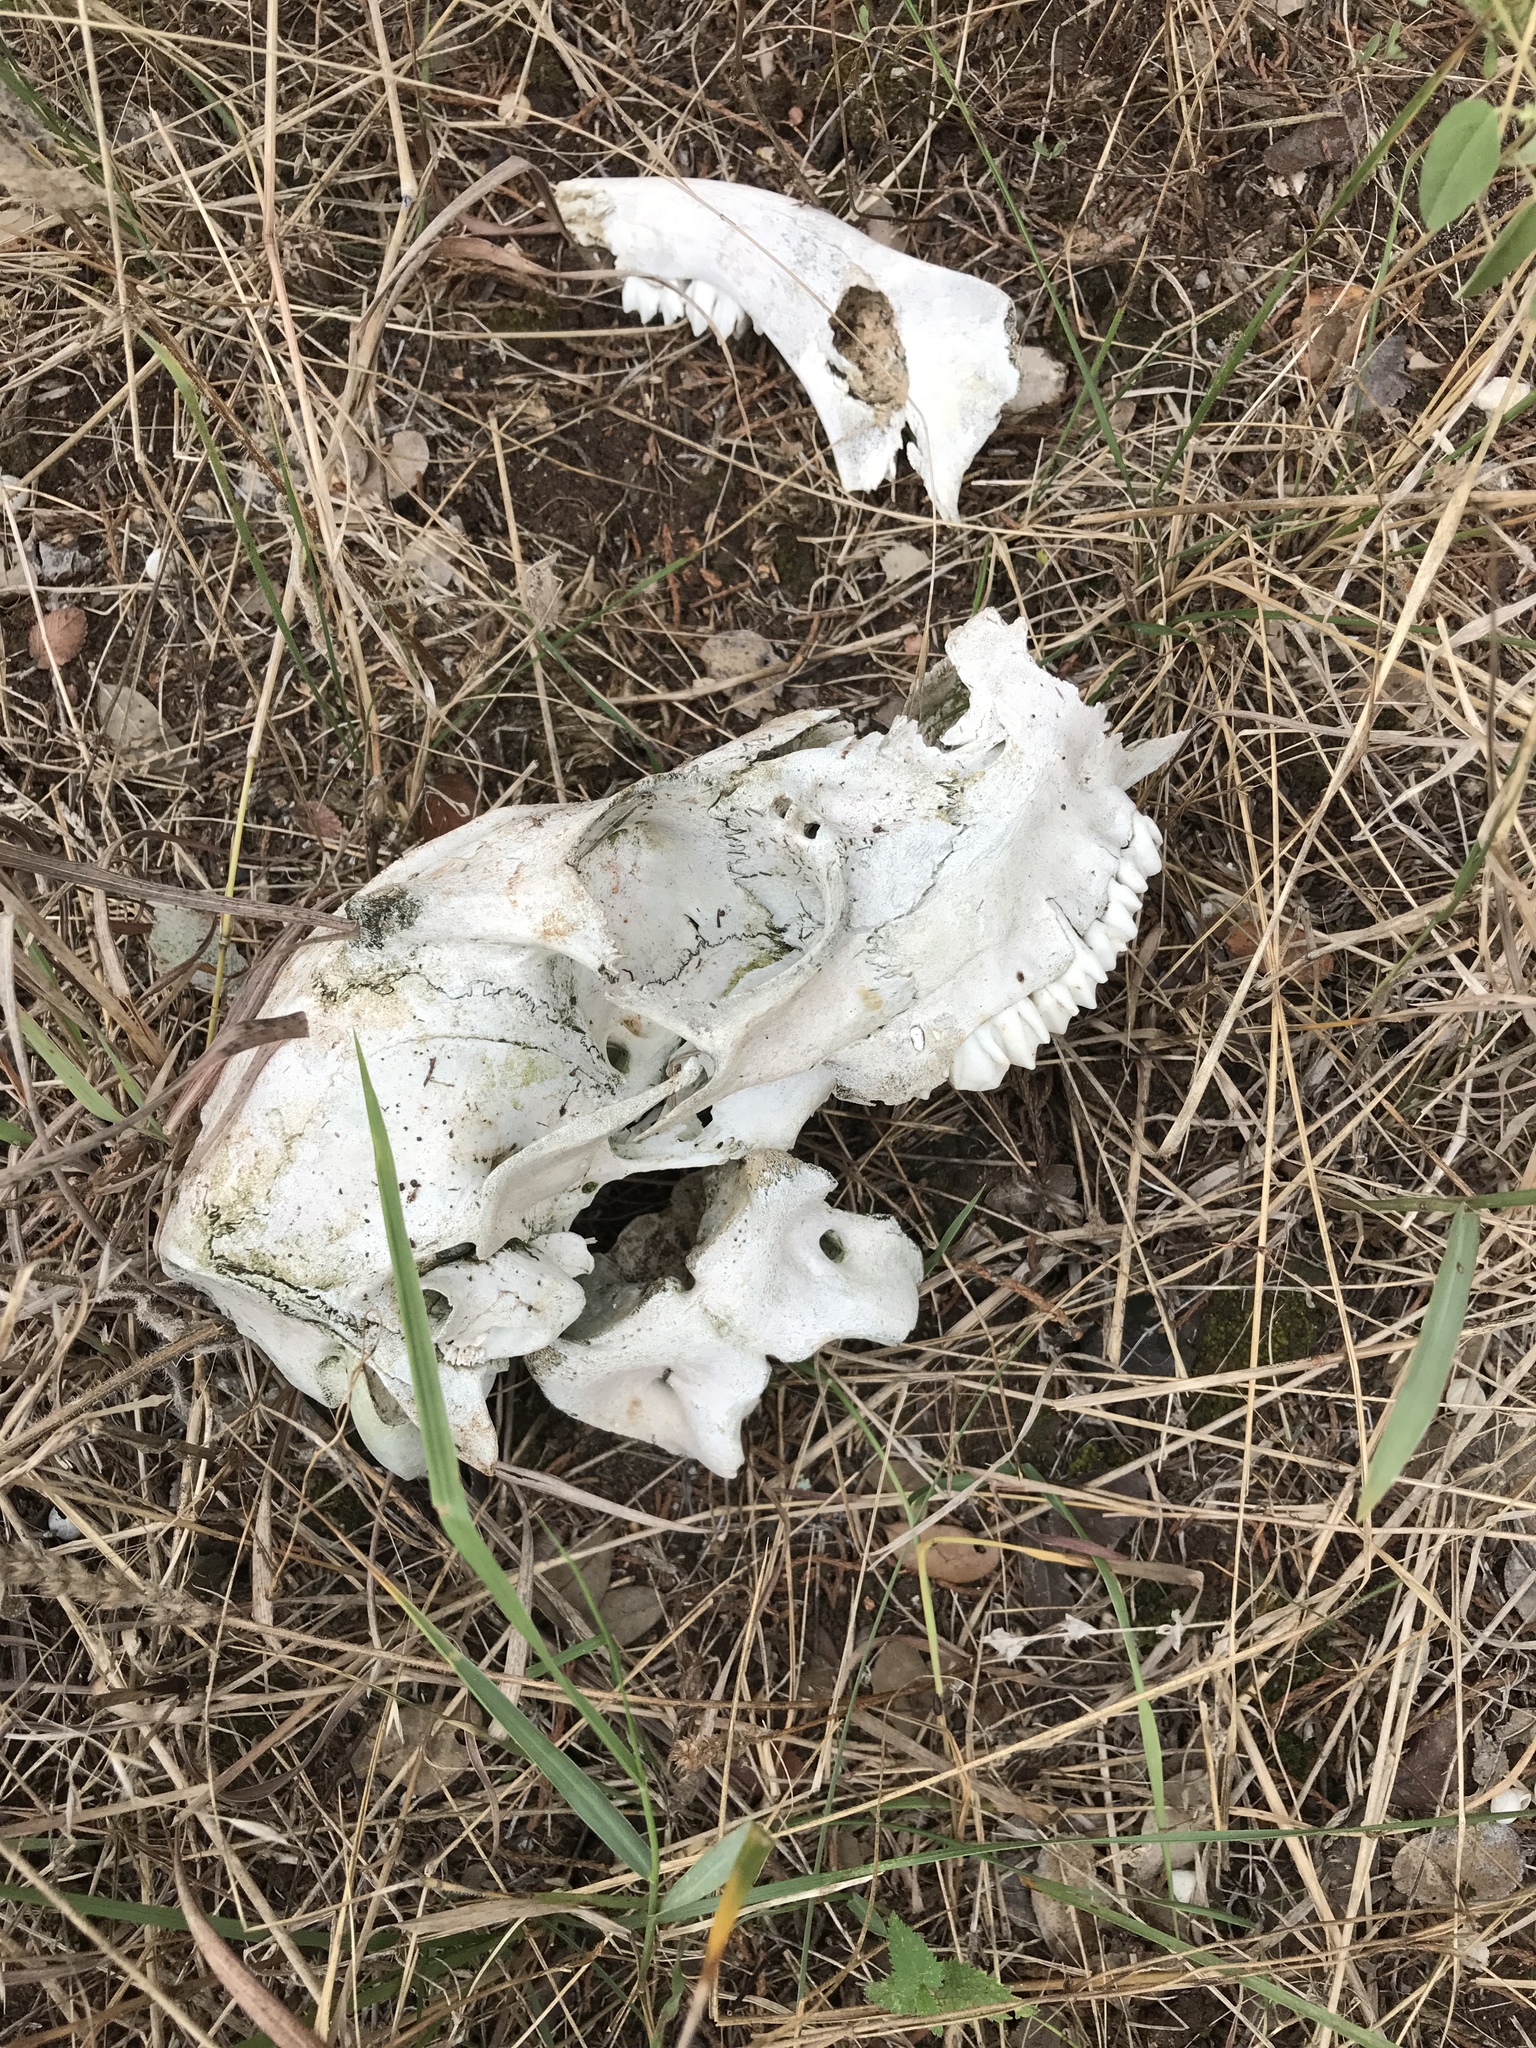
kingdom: Animalia
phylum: Chordata
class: Mammalia
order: Artiodactyla
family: Cervidae
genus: Odocoileus
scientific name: Odocoileus virginianus
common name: White-tailed deer
